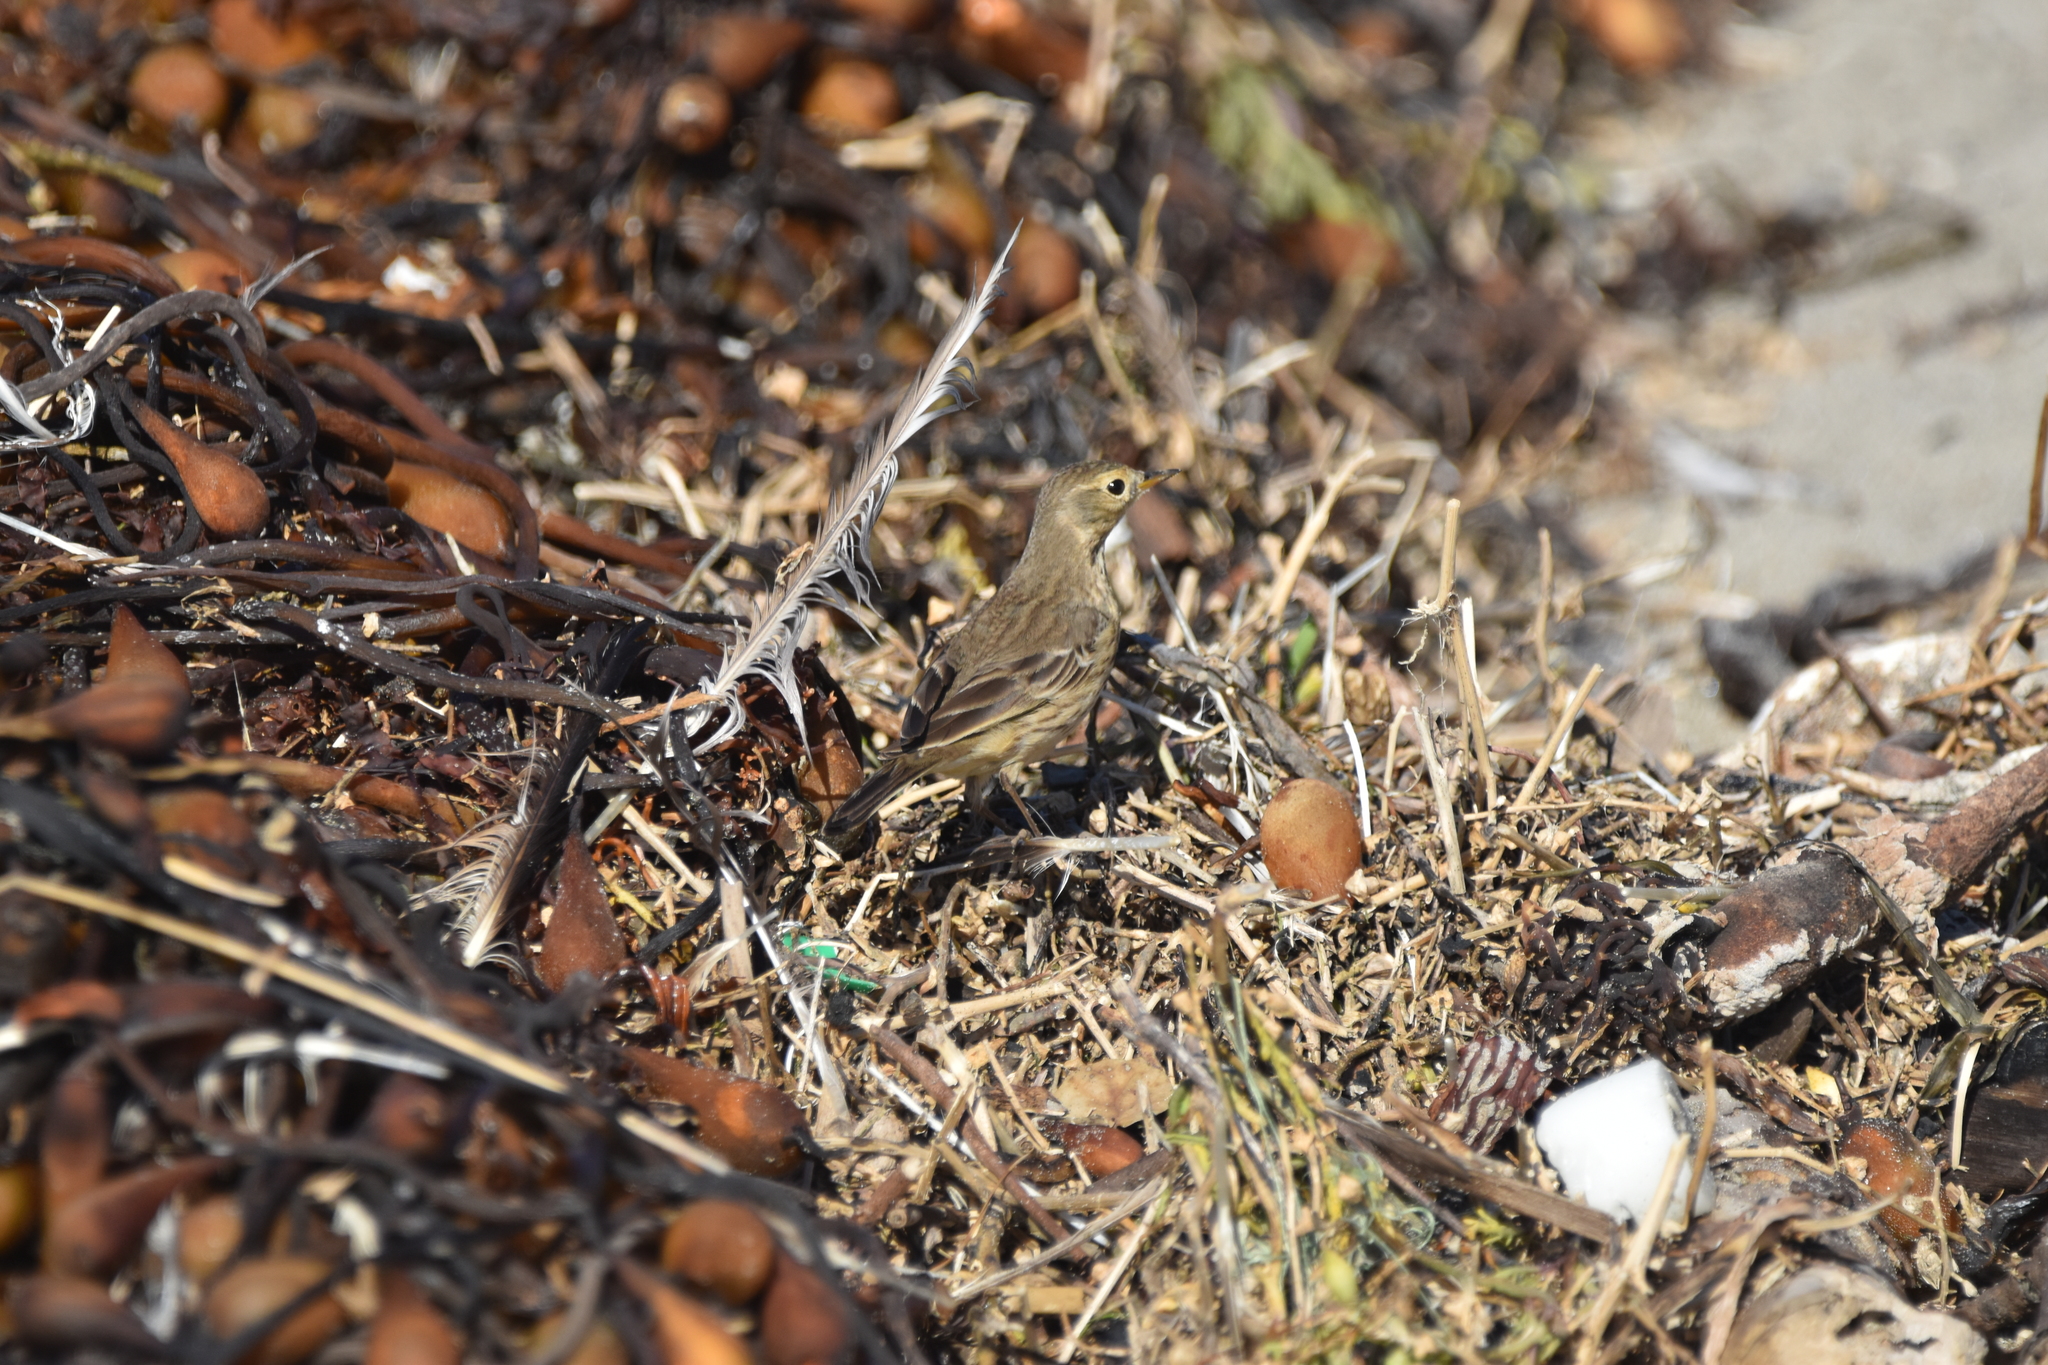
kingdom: Animalia
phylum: Chordata
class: Aves
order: Passeriformes
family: Motacillidae
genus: Anthus
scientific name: Anthus rubescens
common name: Buff-bellied pipit
